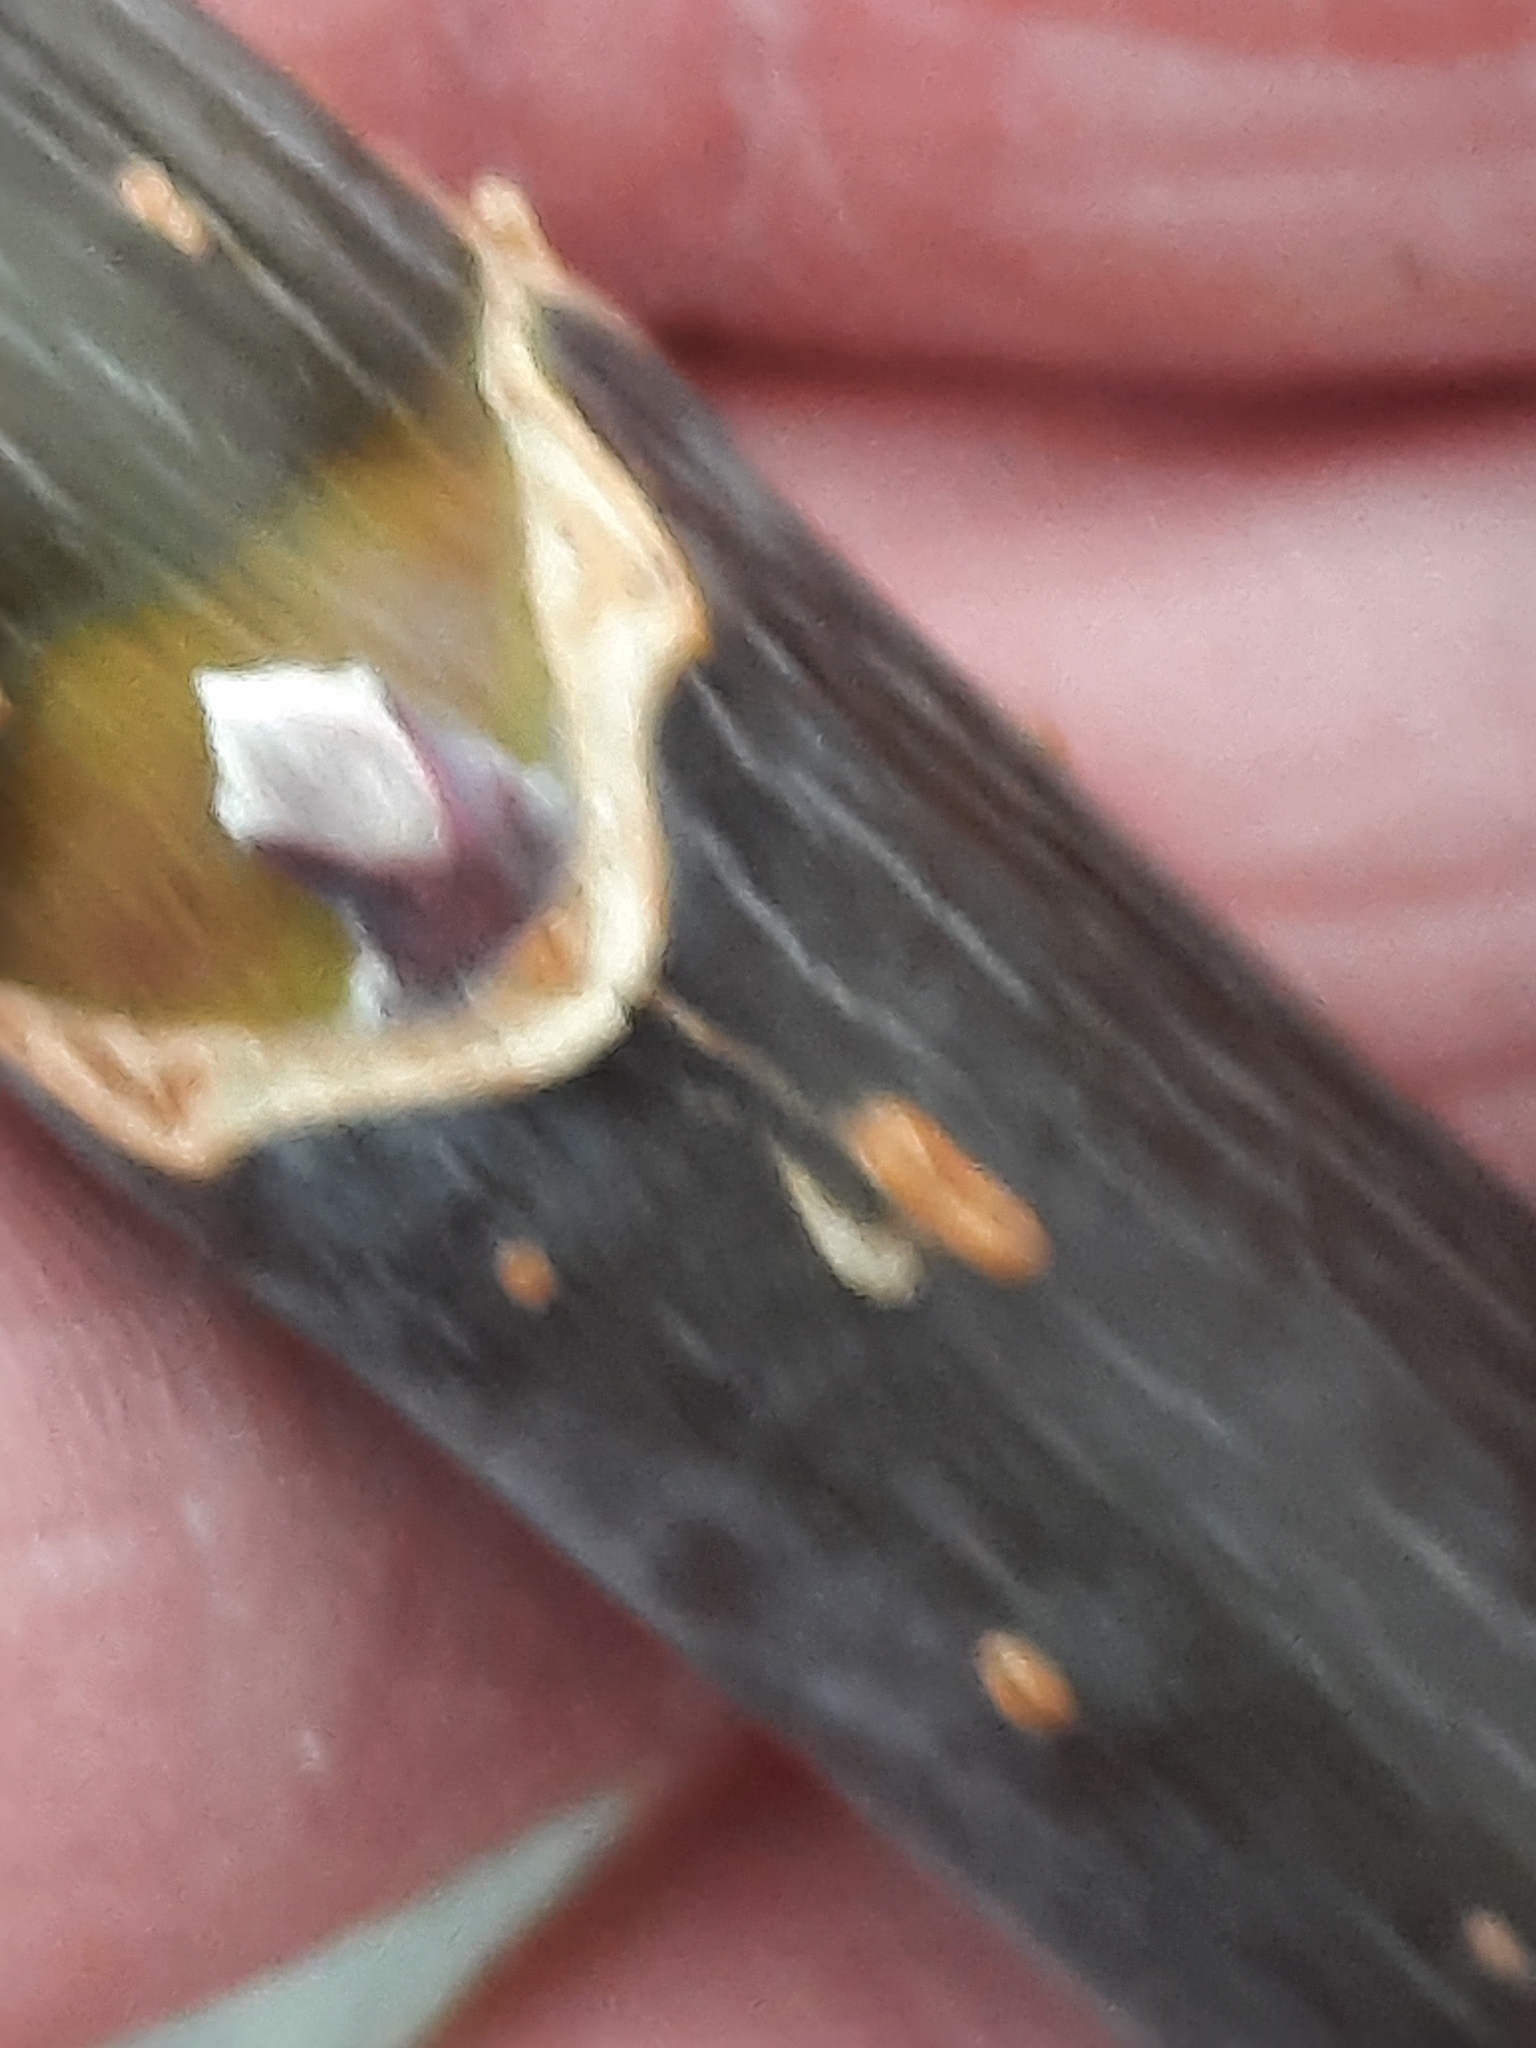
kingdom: Plantae
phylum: Tracheophyta
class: Magnoliopsida
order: Sapindales
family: Sapindaceae
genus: Acer
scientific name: Acer negundo
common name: Ashleaf maple
